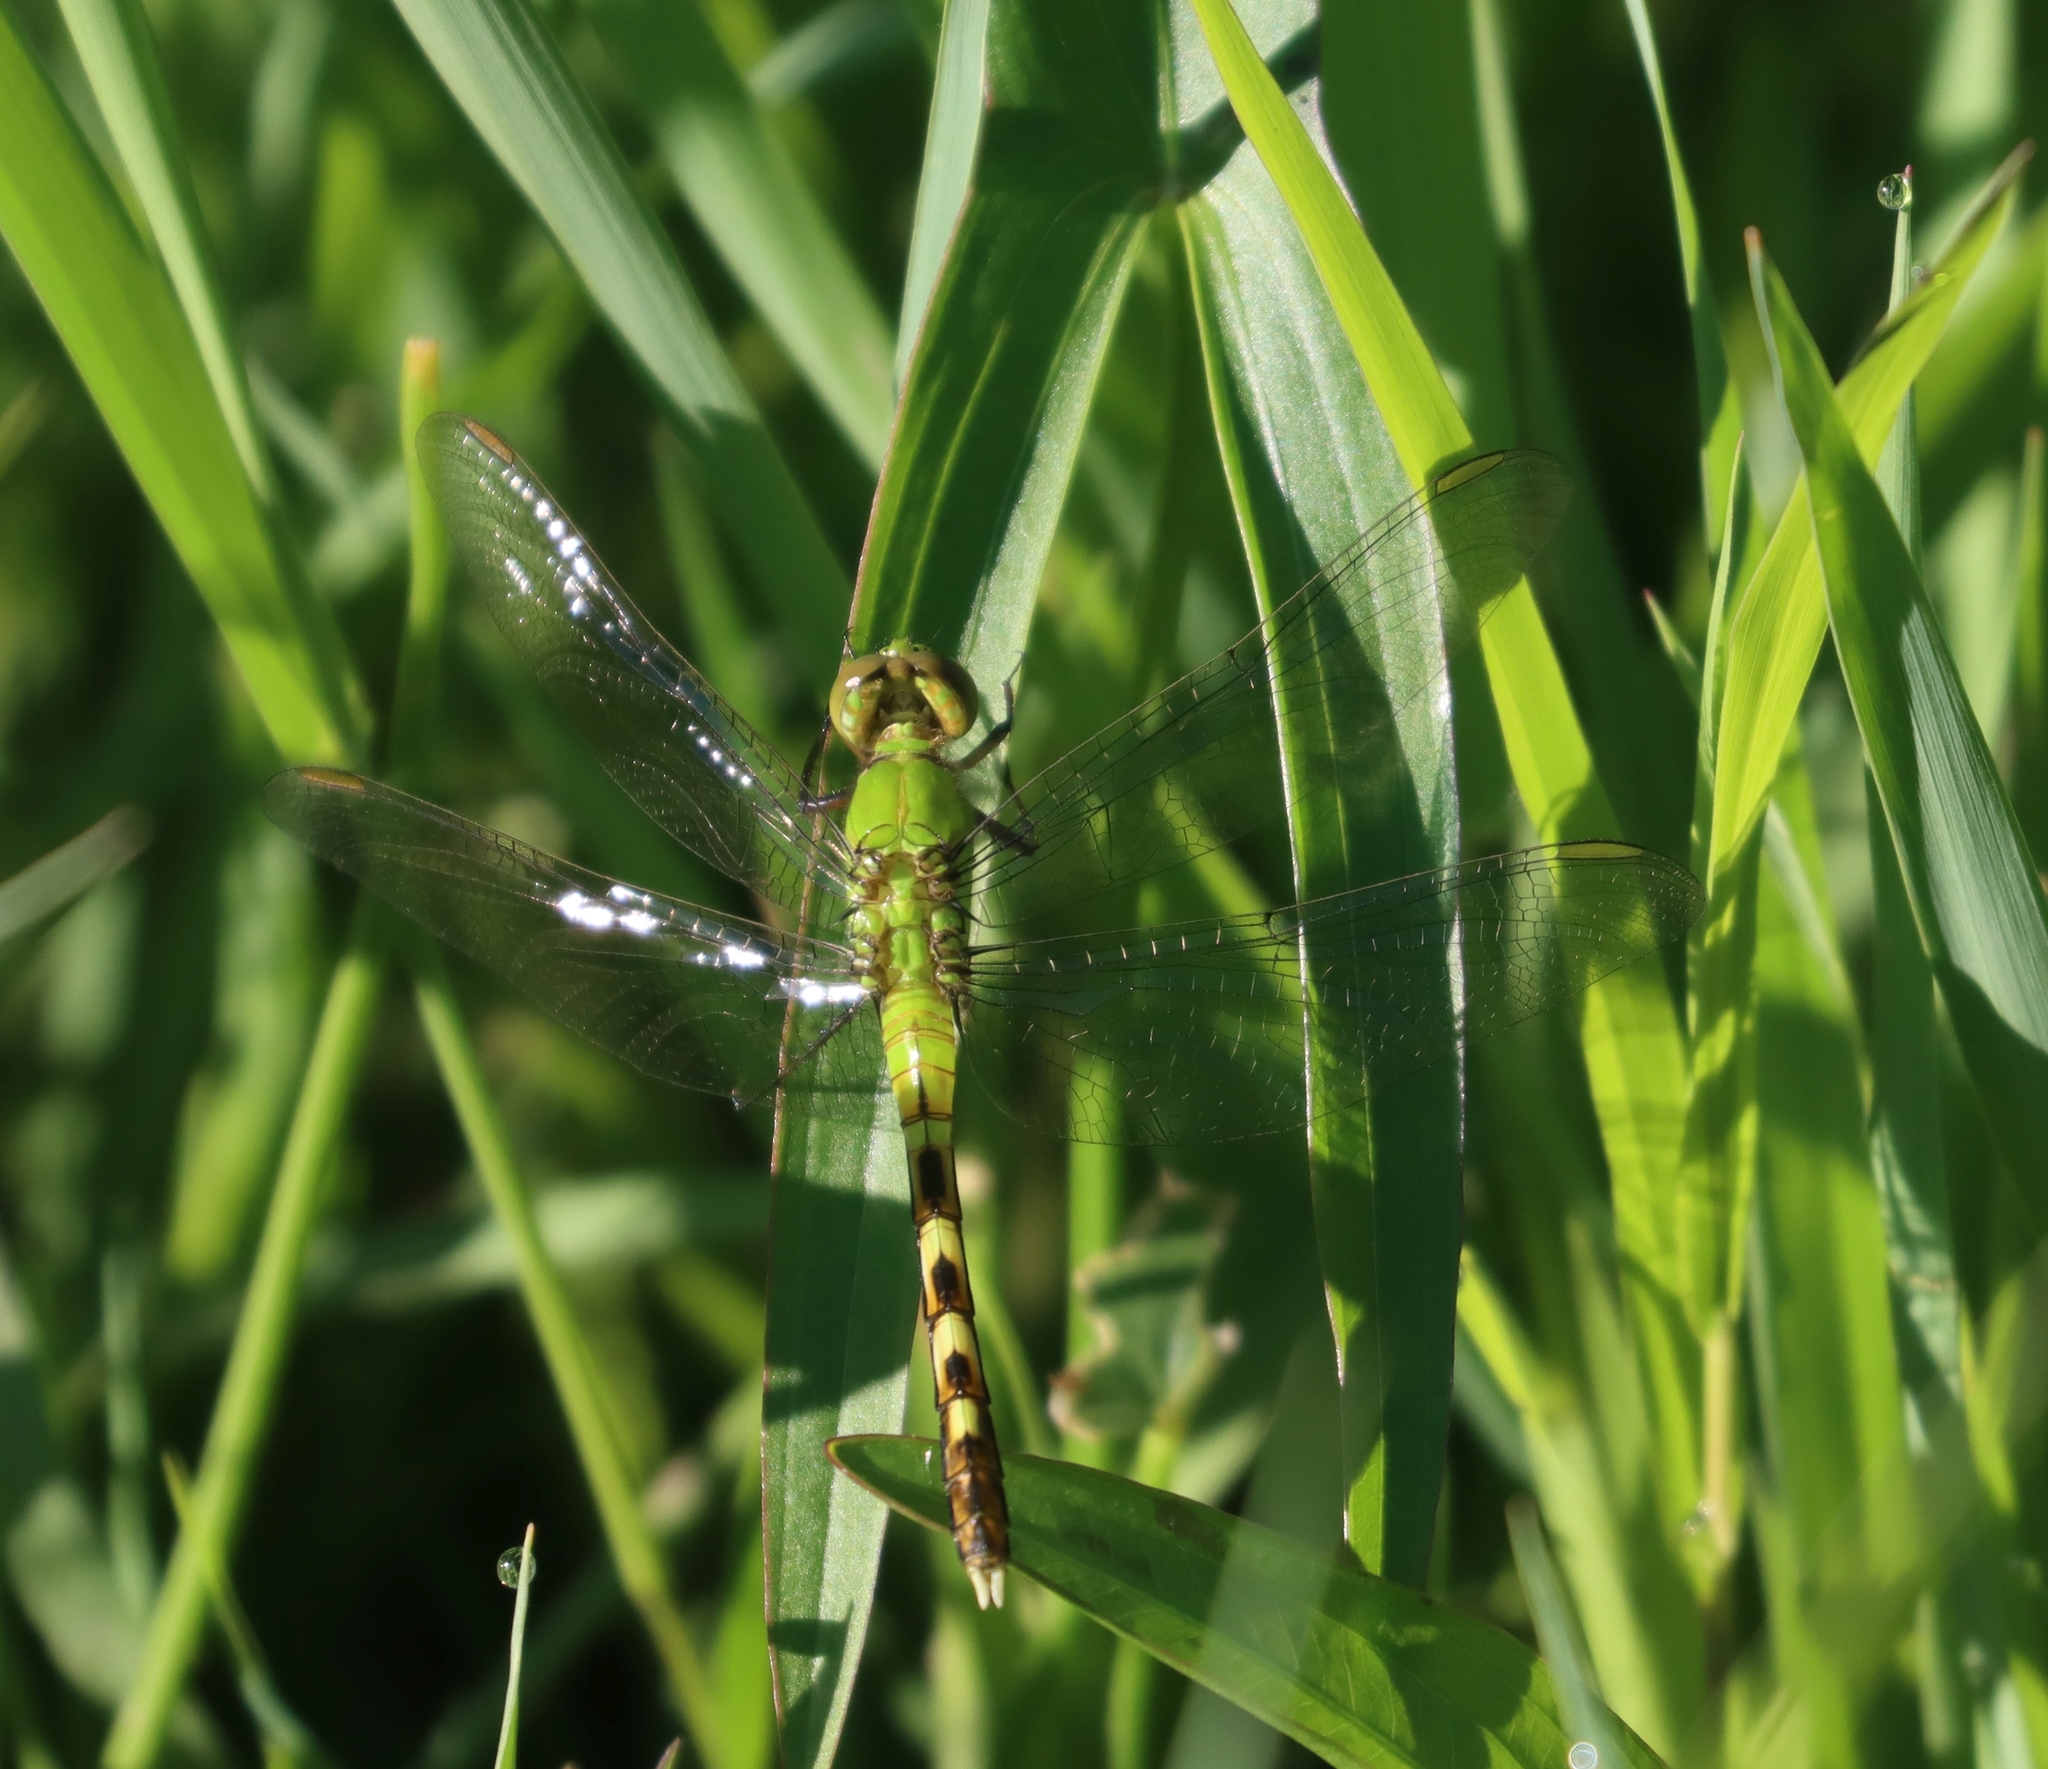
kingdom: Animalia
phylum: Arthropoda
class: Insecta
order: Odonata
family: Libellulidae
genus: Erythemis
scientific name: Erythemis simplicicollis
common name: Eastern pondhawk
